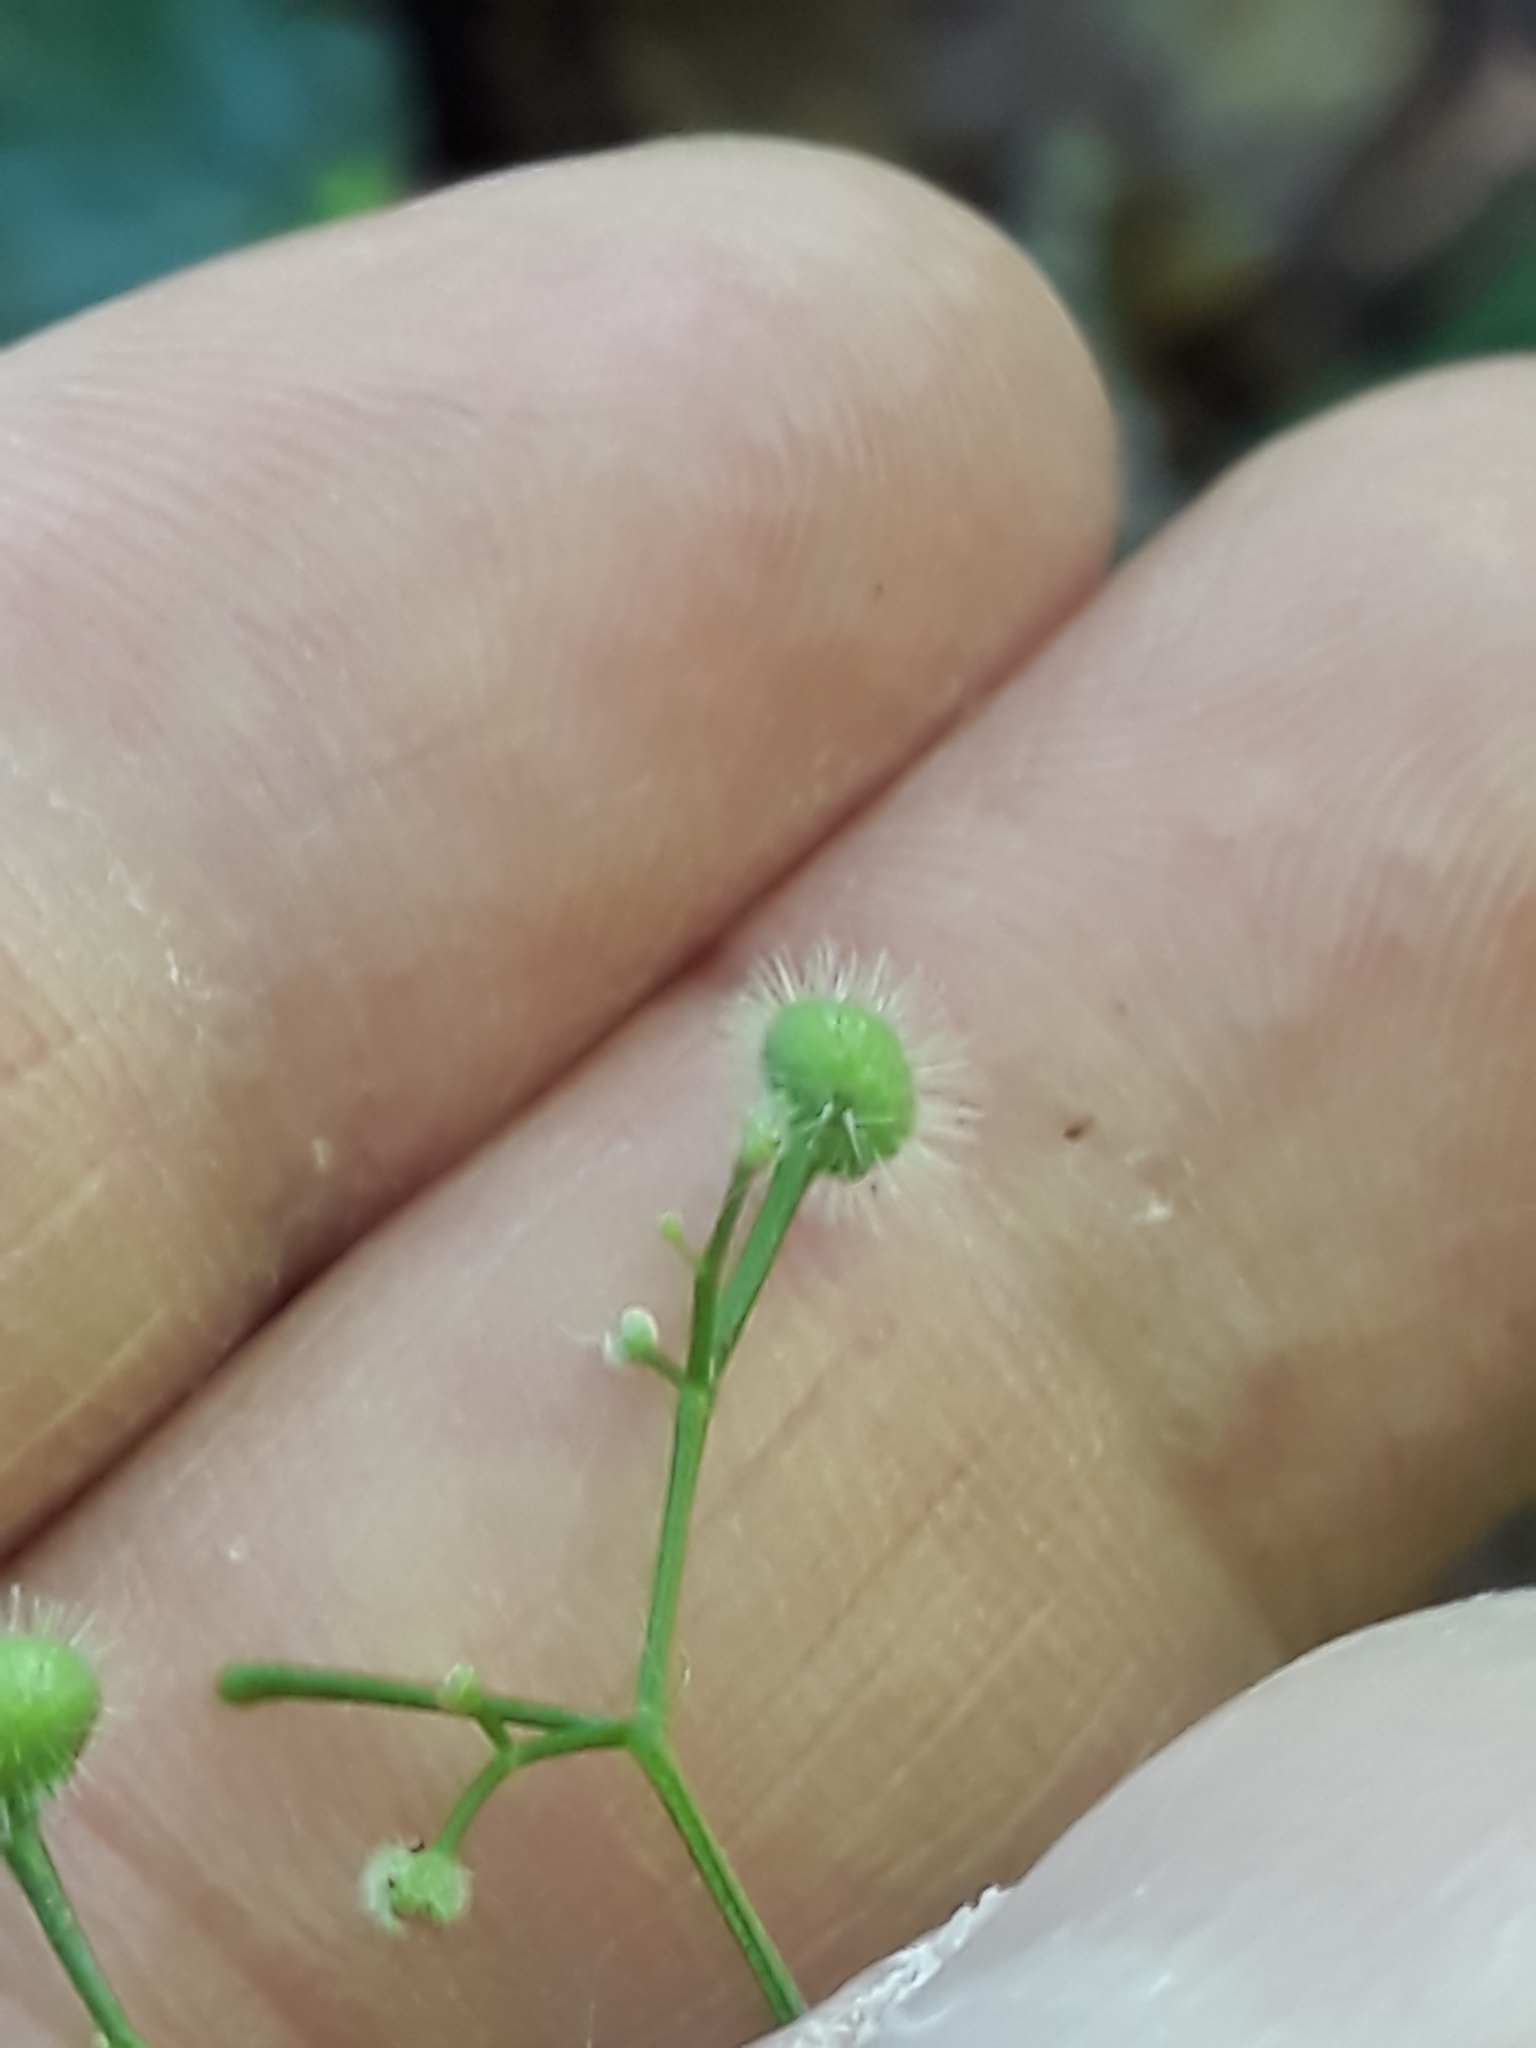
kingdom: Plantae
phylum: Tracheophyta
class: Magnoliopsida
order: Gentianales
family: Rubiaceae
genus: Galium
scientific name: Galium odoratum
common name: Sweet woodruff
